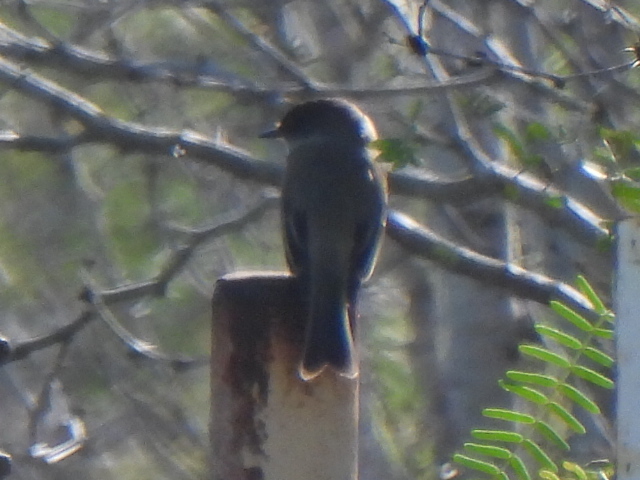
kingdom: Animalia
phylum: Chordata
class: Aves
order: Passeriformes
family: Tyrannidae
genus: Sayornis
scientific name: Sayornis phoebe
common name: Eastern phoebe
